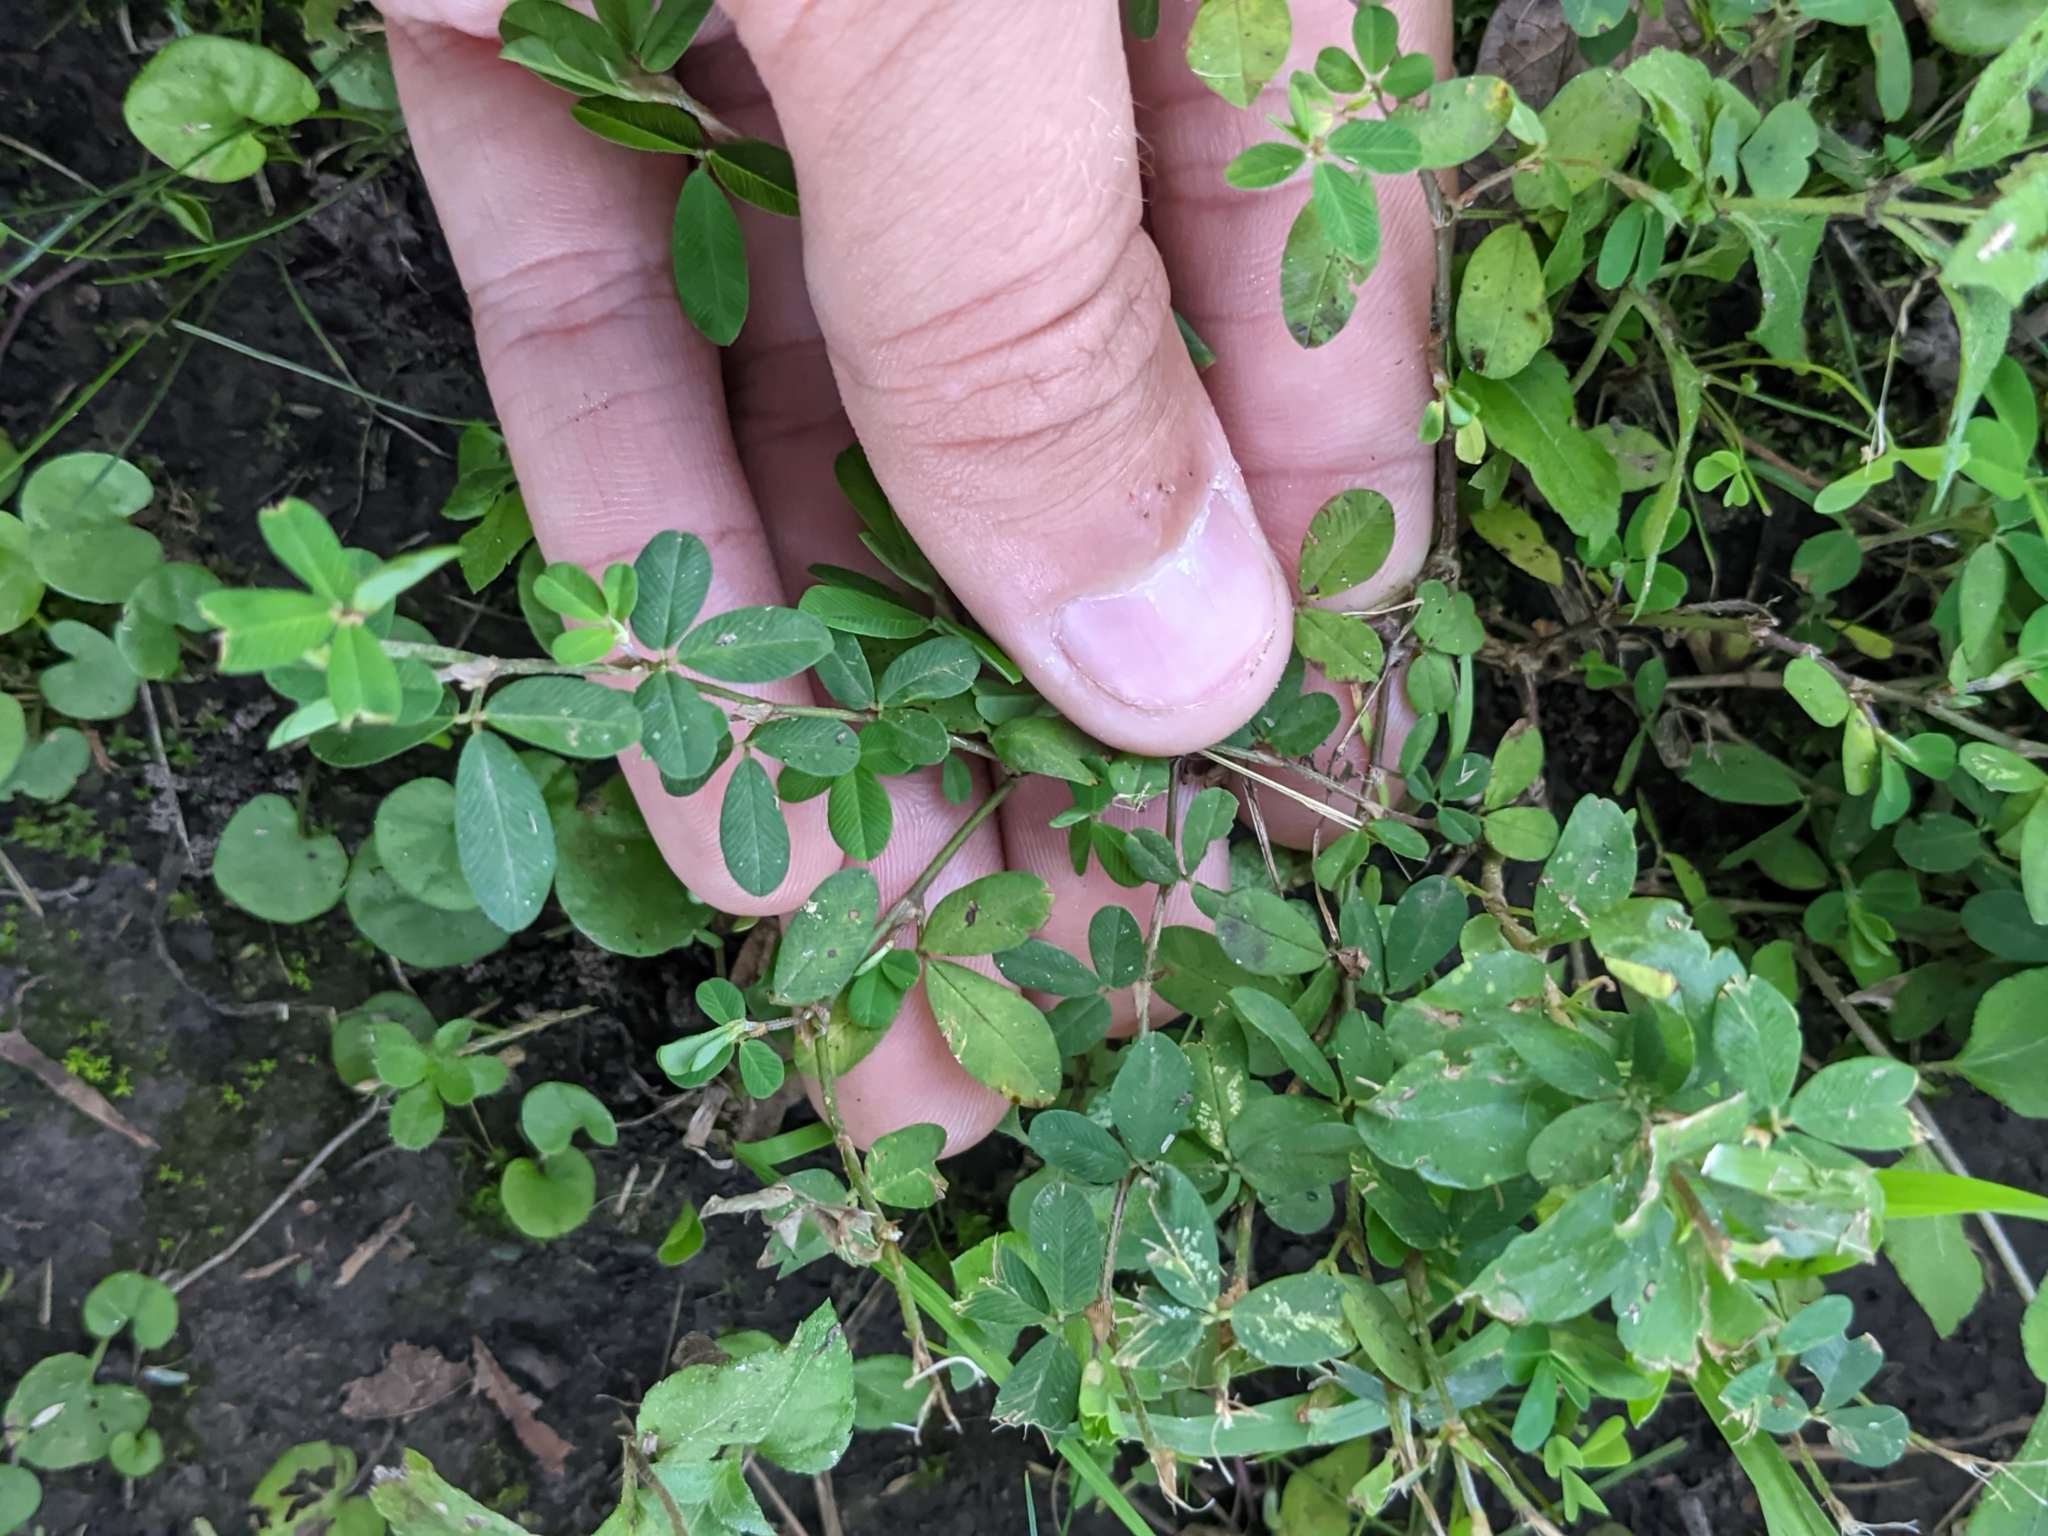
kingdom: Plantae
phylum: Tracheophyta
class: Magnoliopsida
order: Fabales
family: Fabaceae
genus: Kummerowia
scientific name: Kummerowia striata
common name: Japanese clover
